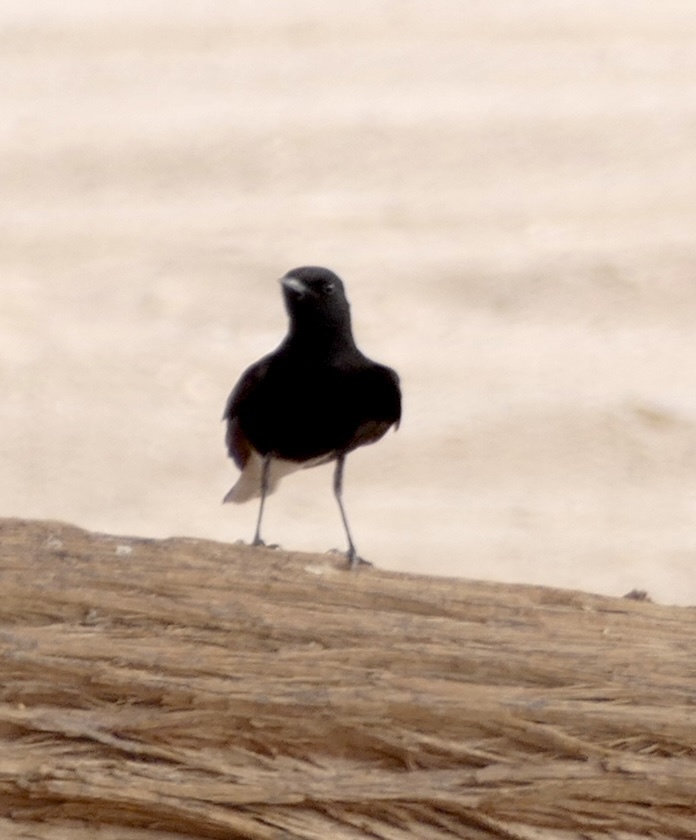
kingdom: Animalia
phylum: Chordata
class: Aves
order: Passeriformes
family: Muscicapidae
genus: Oenanthe
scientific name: Oenanthe leucopyga
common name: White-crowned wheatear
